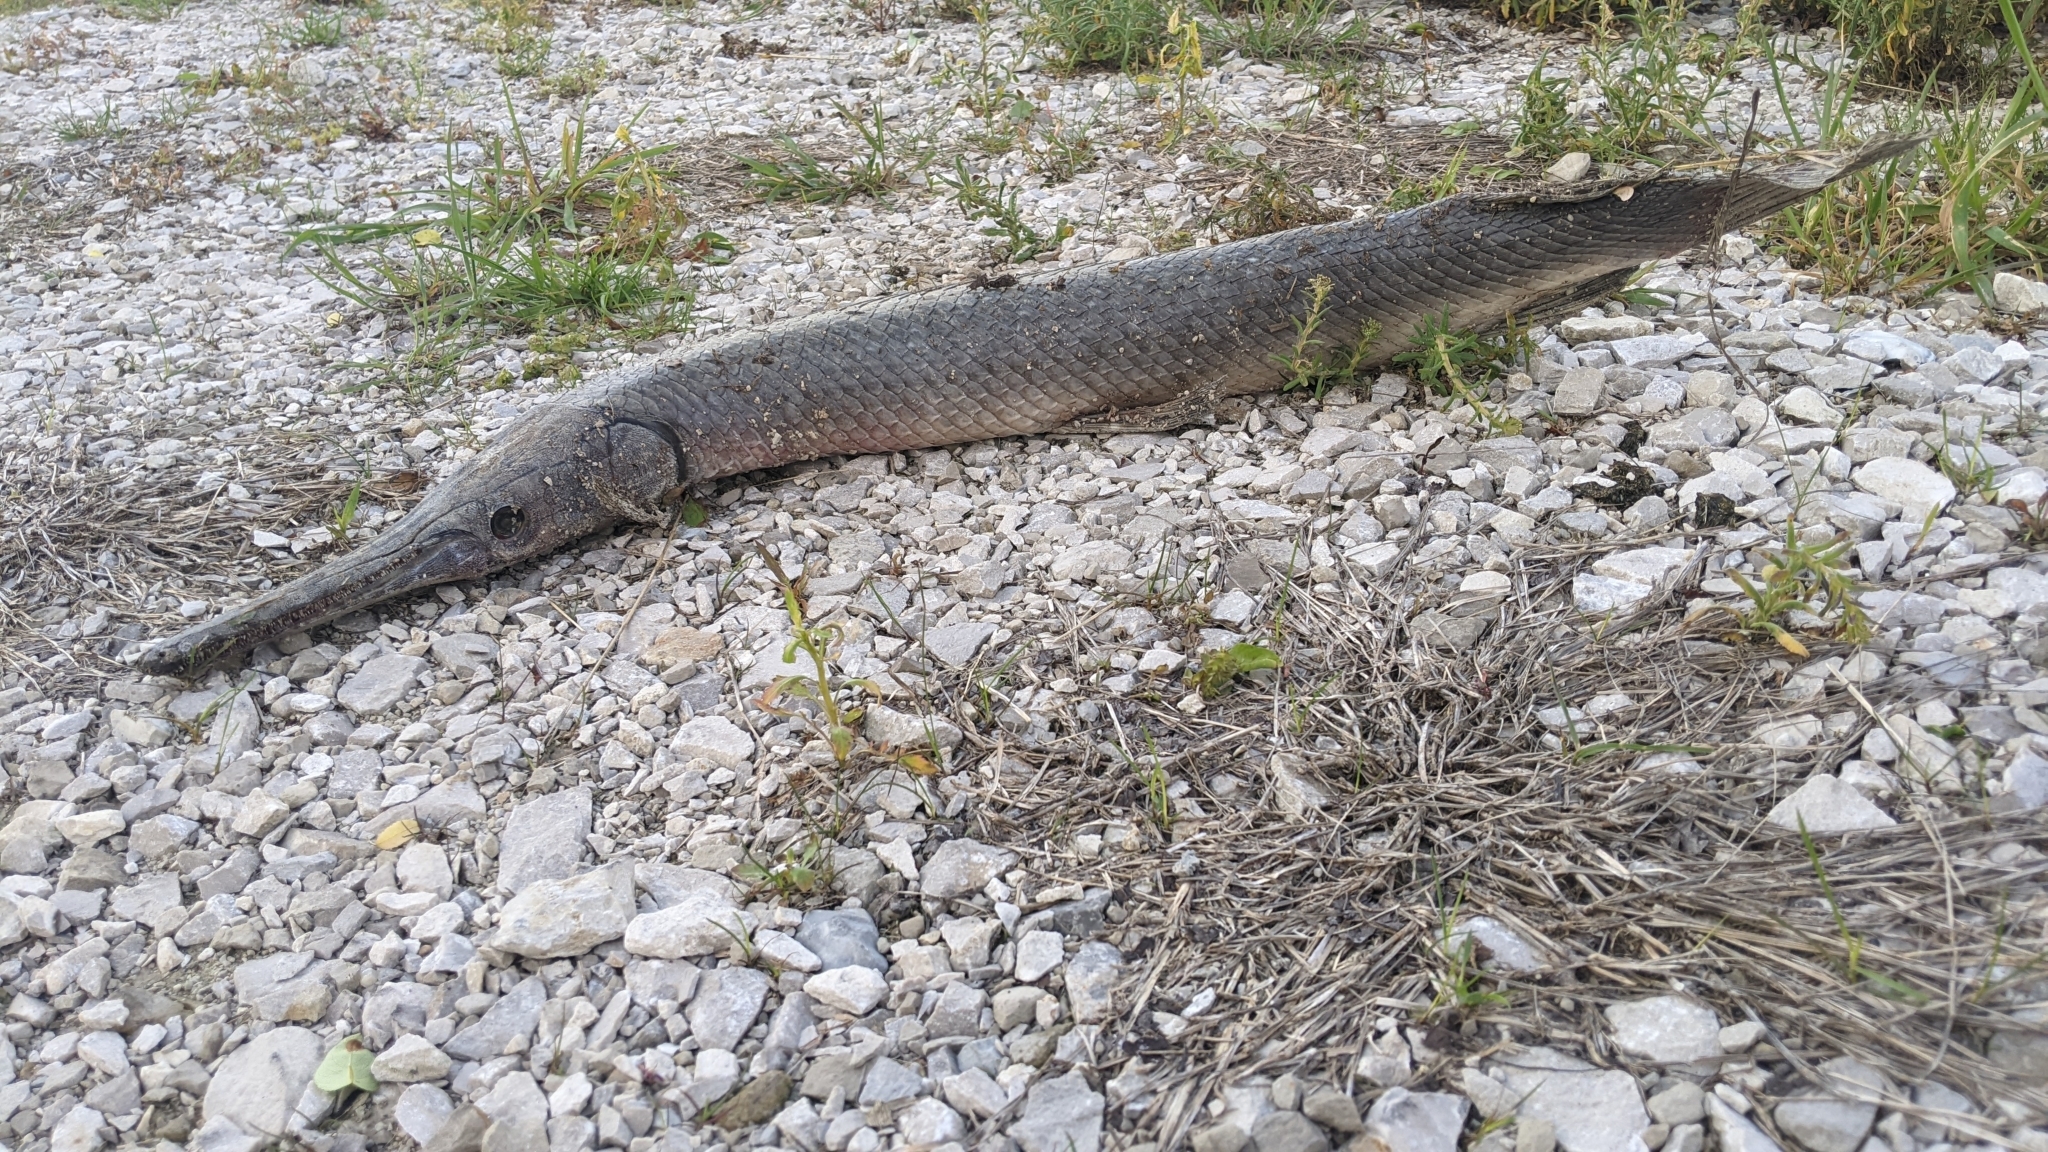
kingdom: Animalia
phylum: Chordata
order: Lepisosteiformes
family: Lepisosteidae
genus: Lepisosteus
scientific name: Lepisosteus platostomus
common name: Shortnose gar
